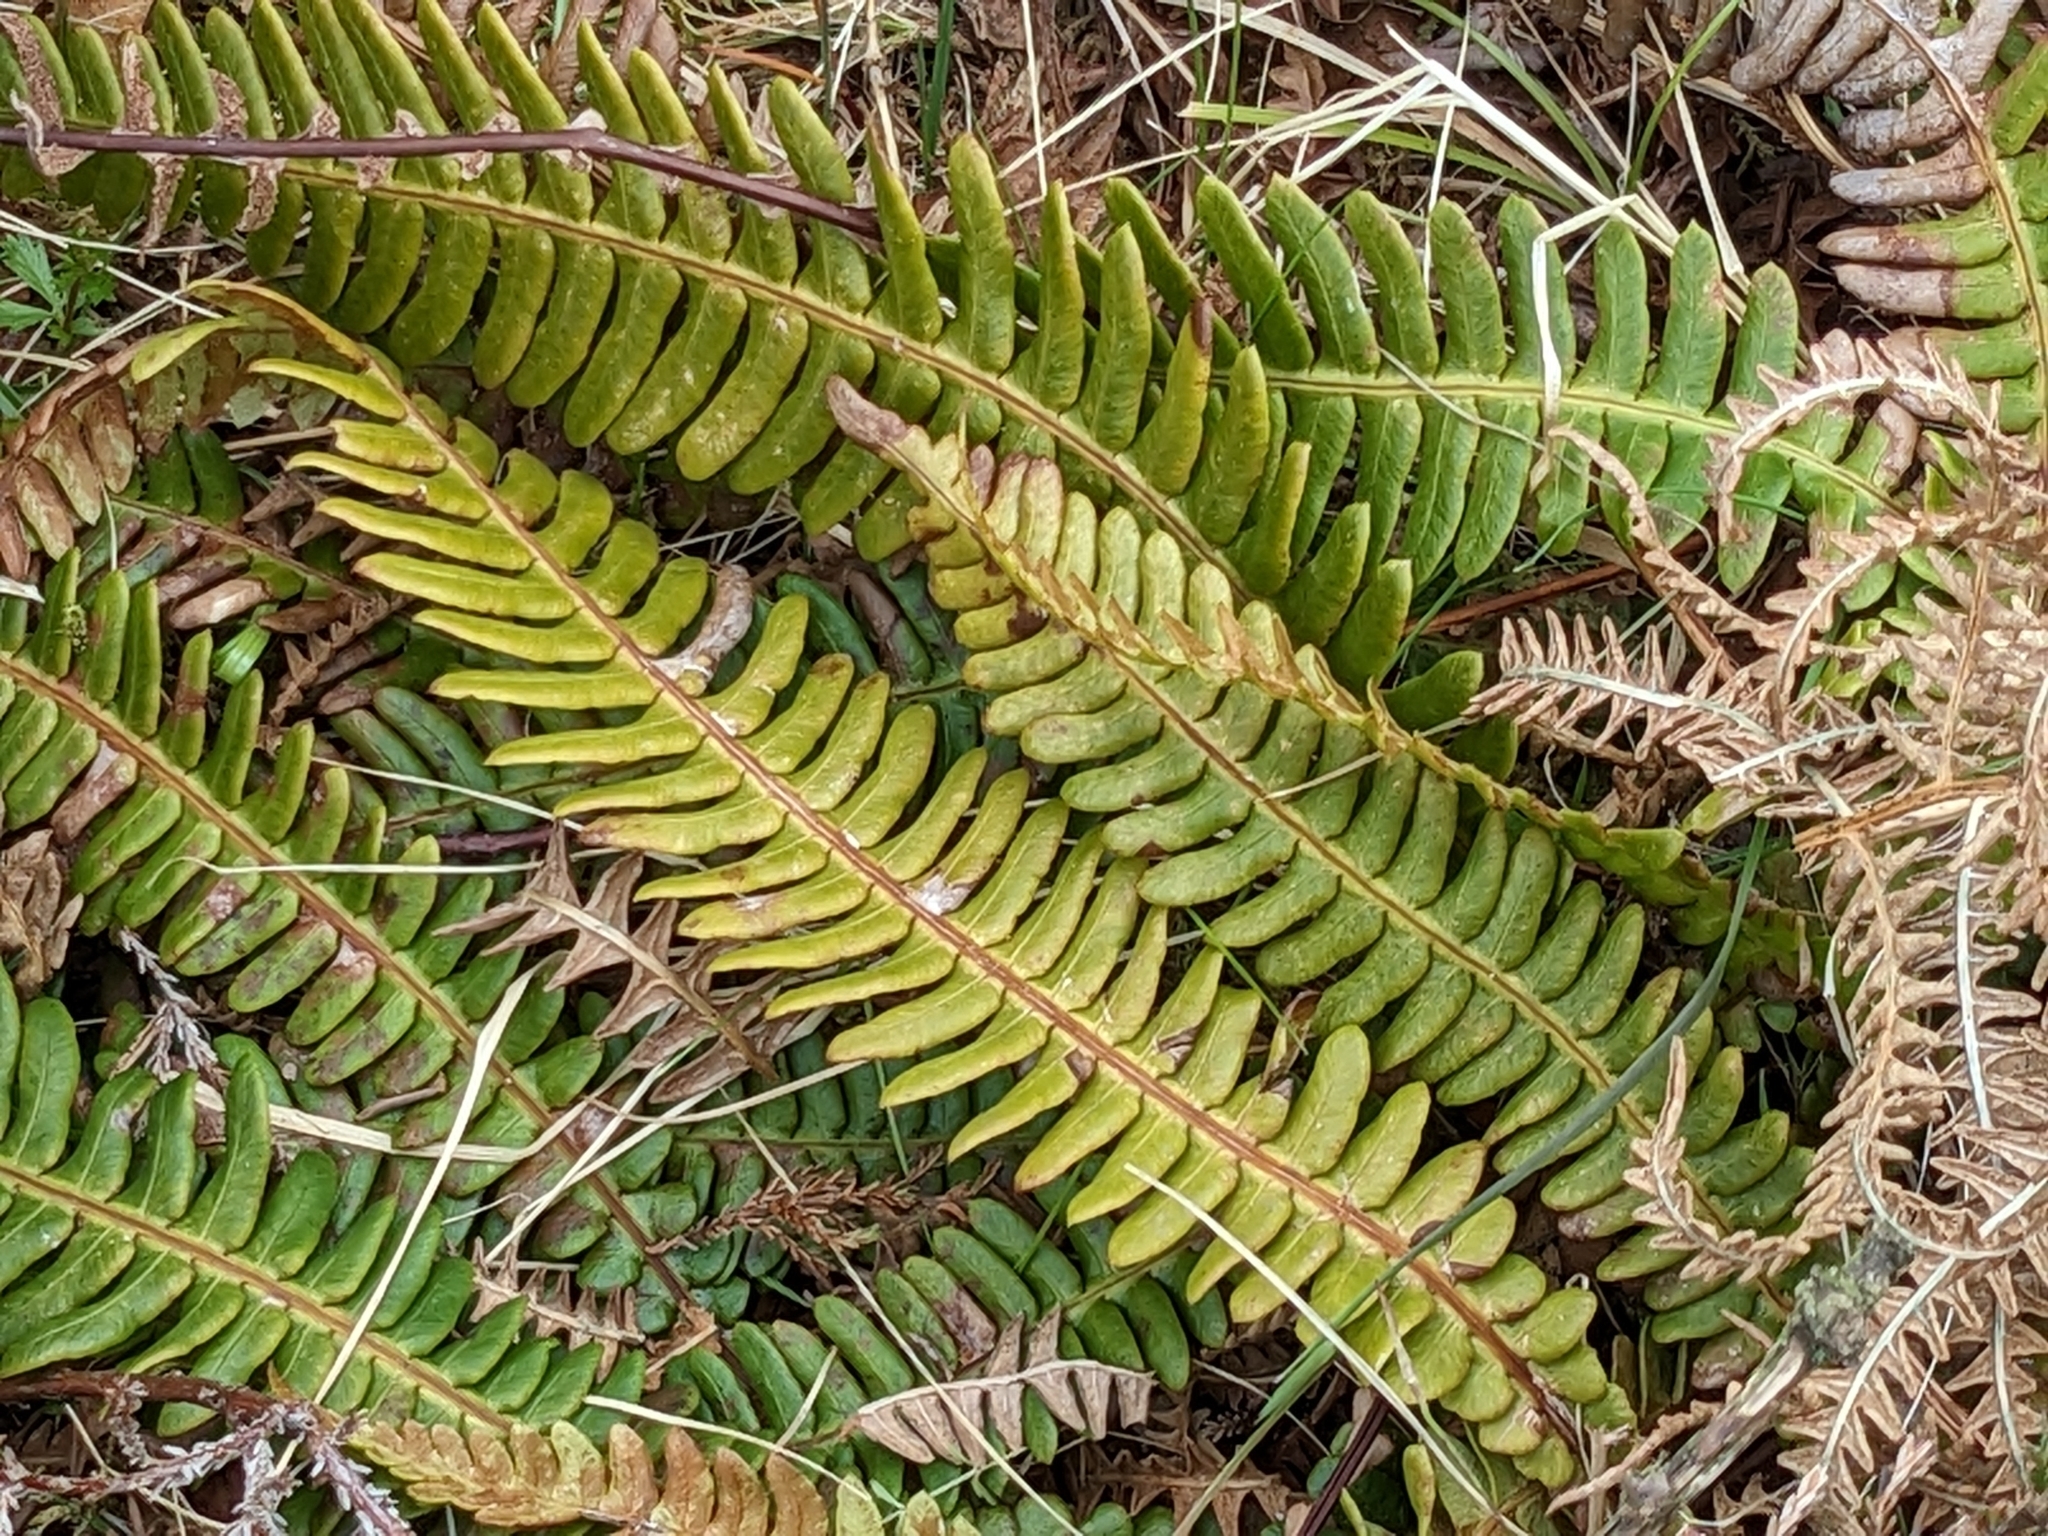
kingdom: Plantae
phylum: Tracheophyta
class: Polypodiopsida
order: Polypodiales
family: Blechnaceae
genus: Struthiopteris
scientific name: Struthiopteris spicant
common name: Deer fern
